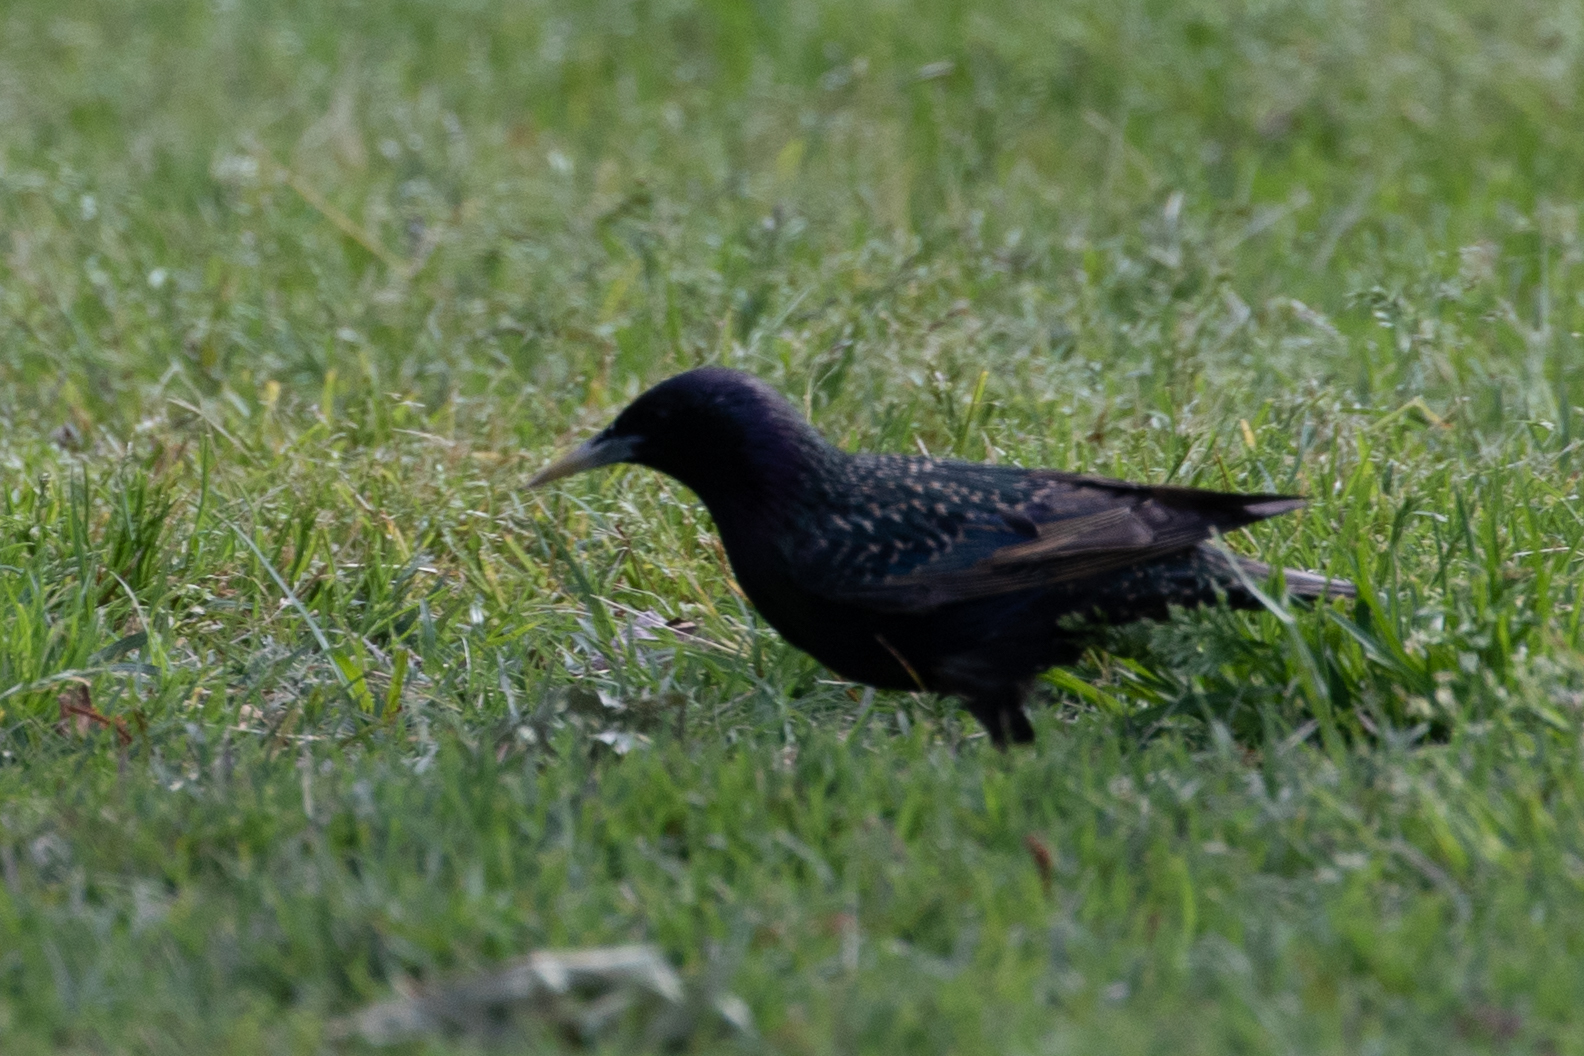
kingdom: Animalia
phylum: Chordata
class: Aves
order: Passeriformes
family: Sturnidae
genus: Sturnus
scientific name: Sturnus vulgaris
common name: Common starling
